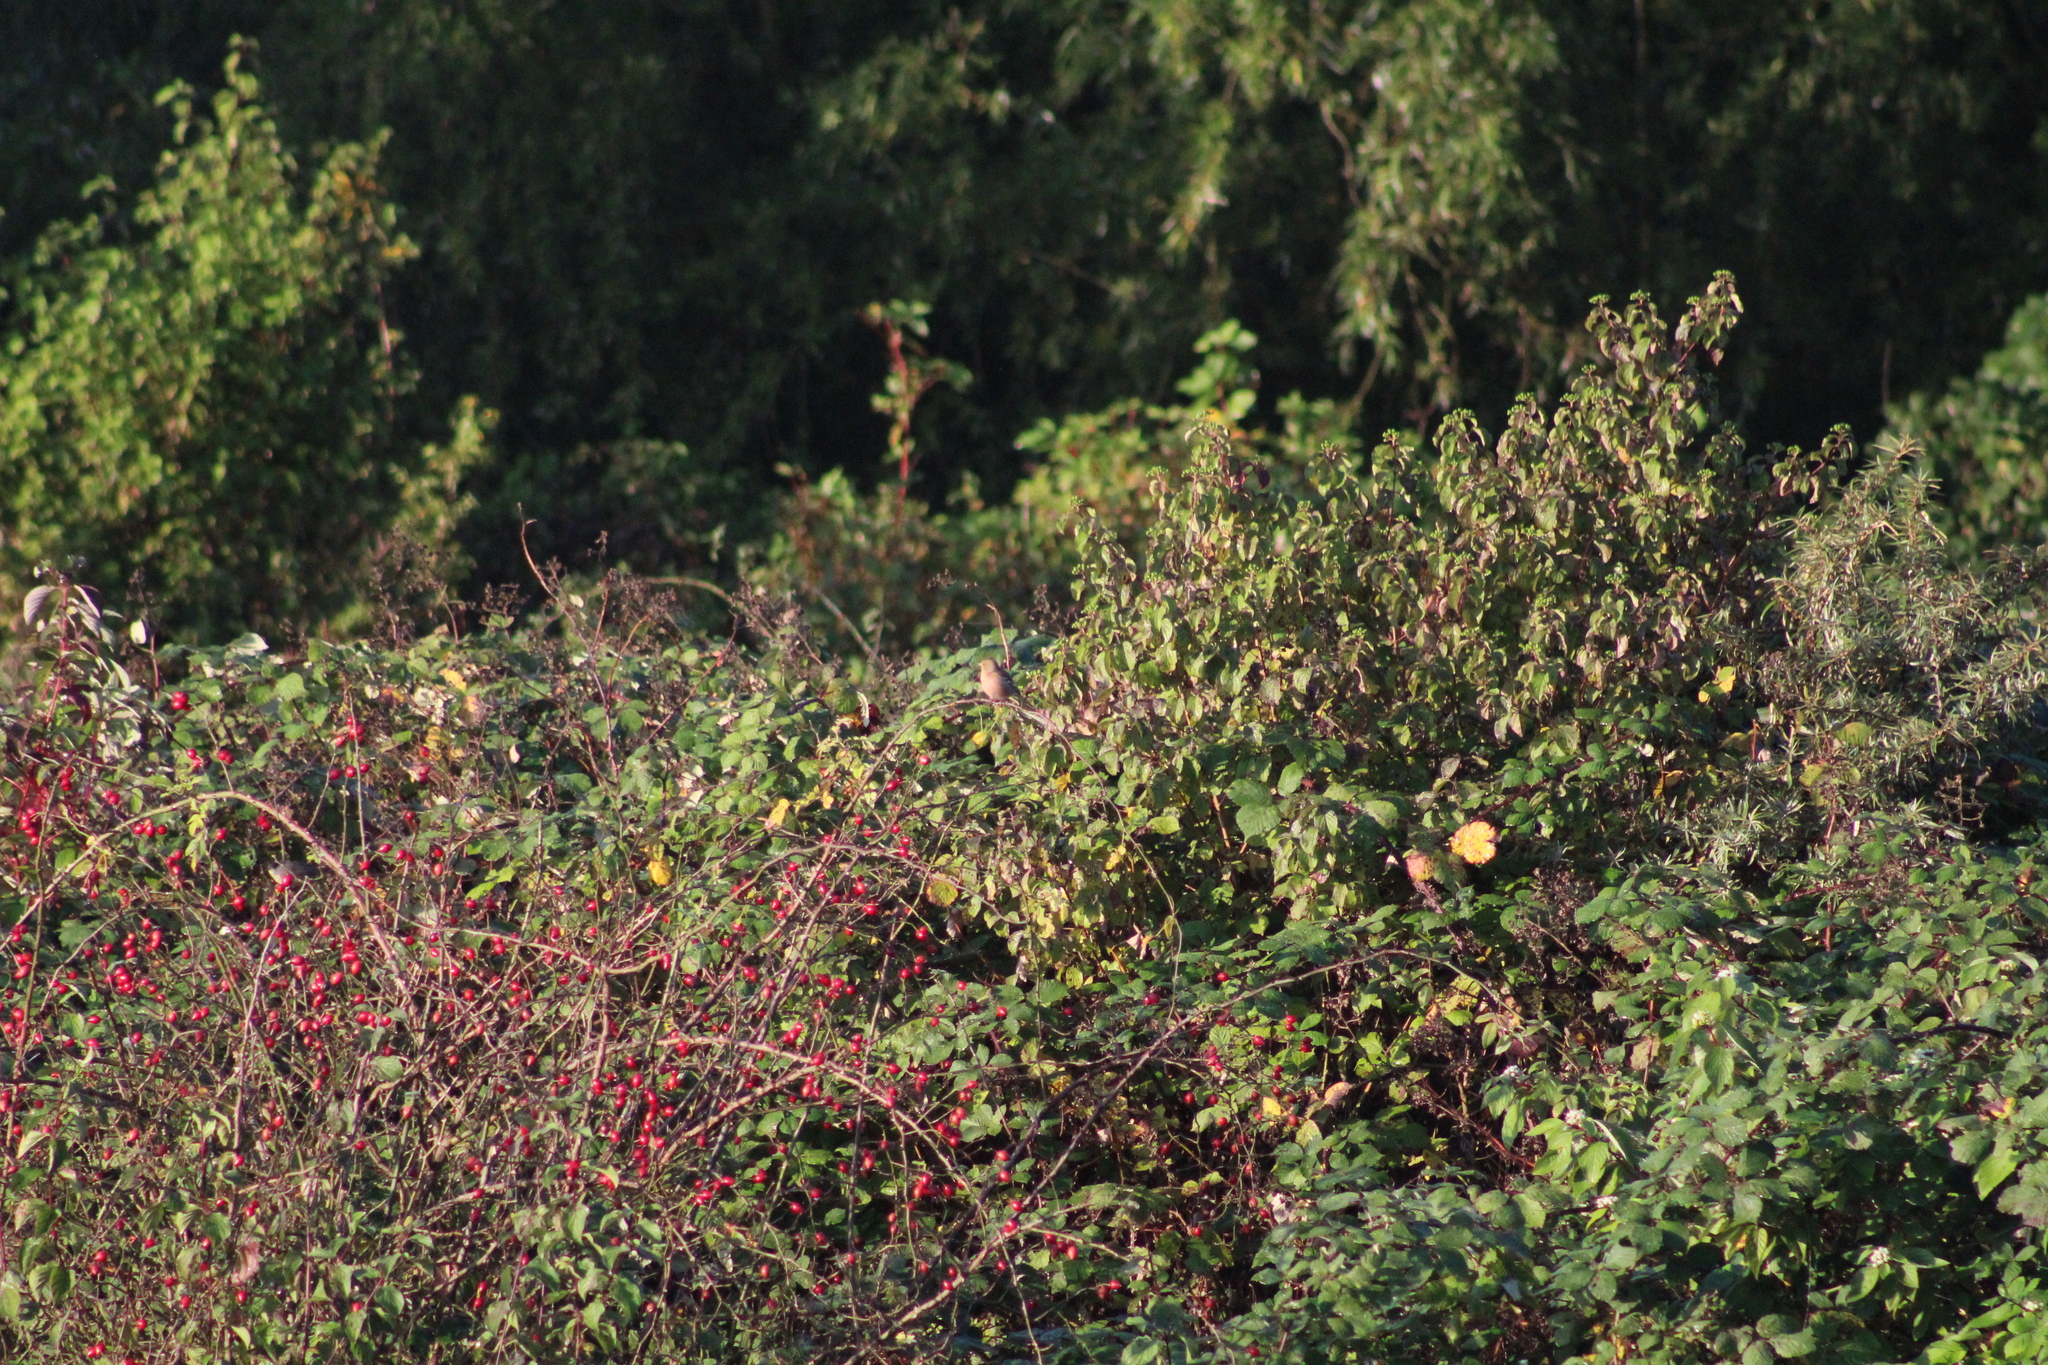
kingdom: Animalia
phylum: Chordata
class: Aves
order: Passeriformes
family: Fringillidae
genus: Fringilla
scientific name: Fringilla coelebs
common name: Common chaffinch
